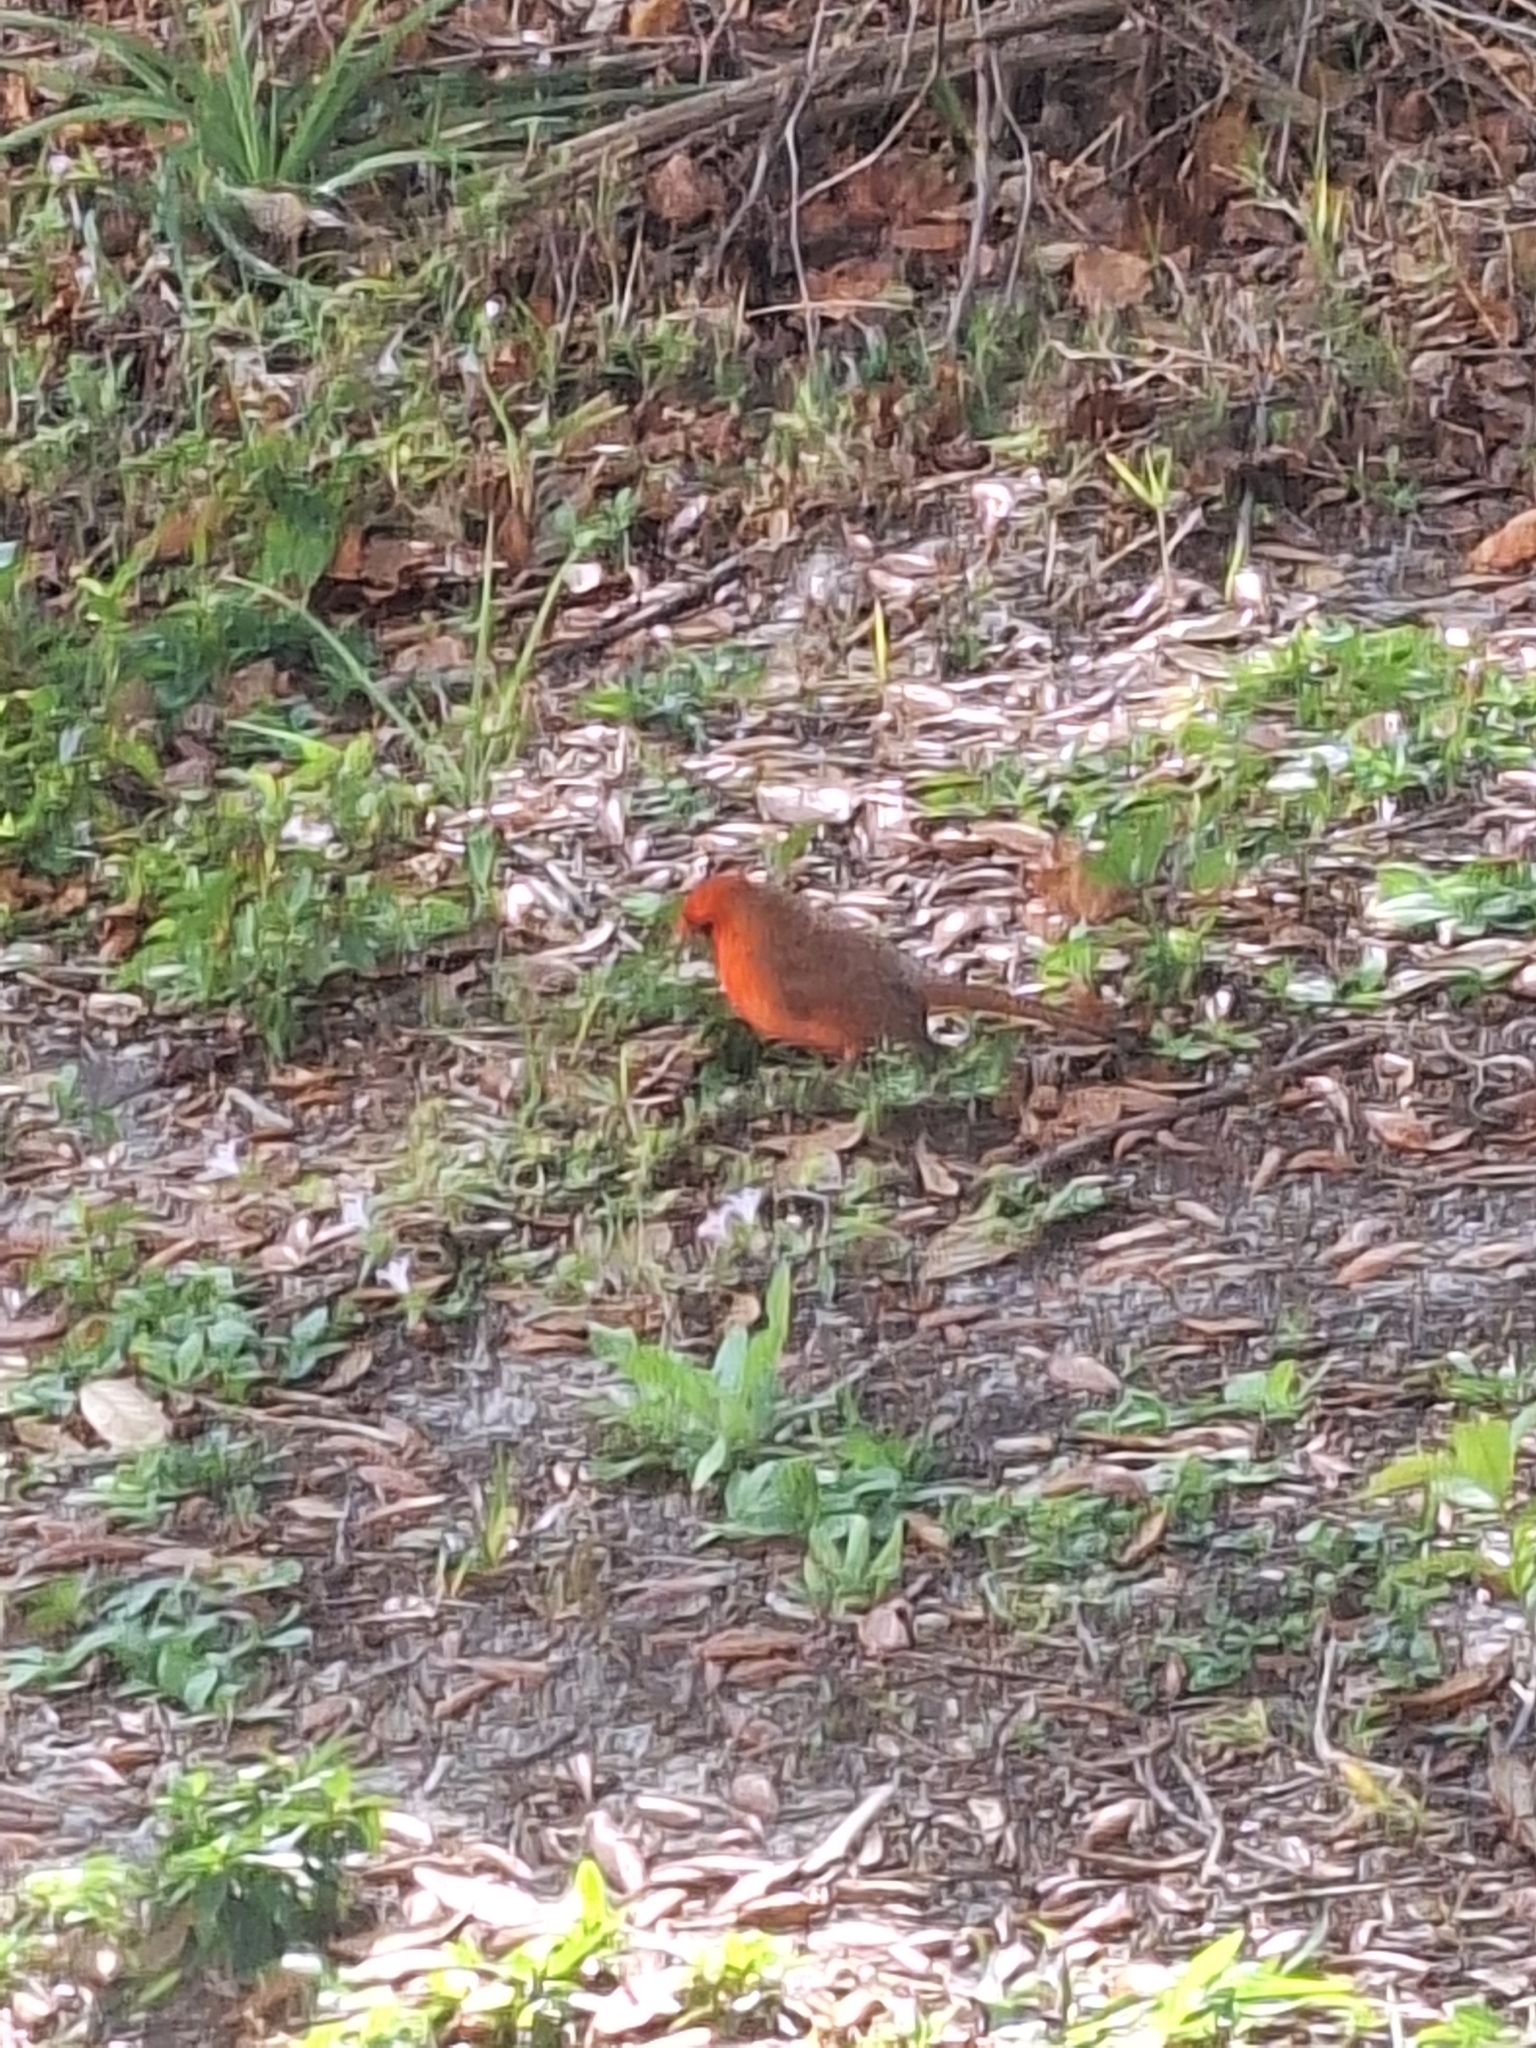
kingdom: Animalia
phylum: Chordata
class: Aves
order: Passeriformes
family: Cardinalidae
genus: Cardinalis
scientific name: Cardinalis cardinalis
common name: Northern cardinal
